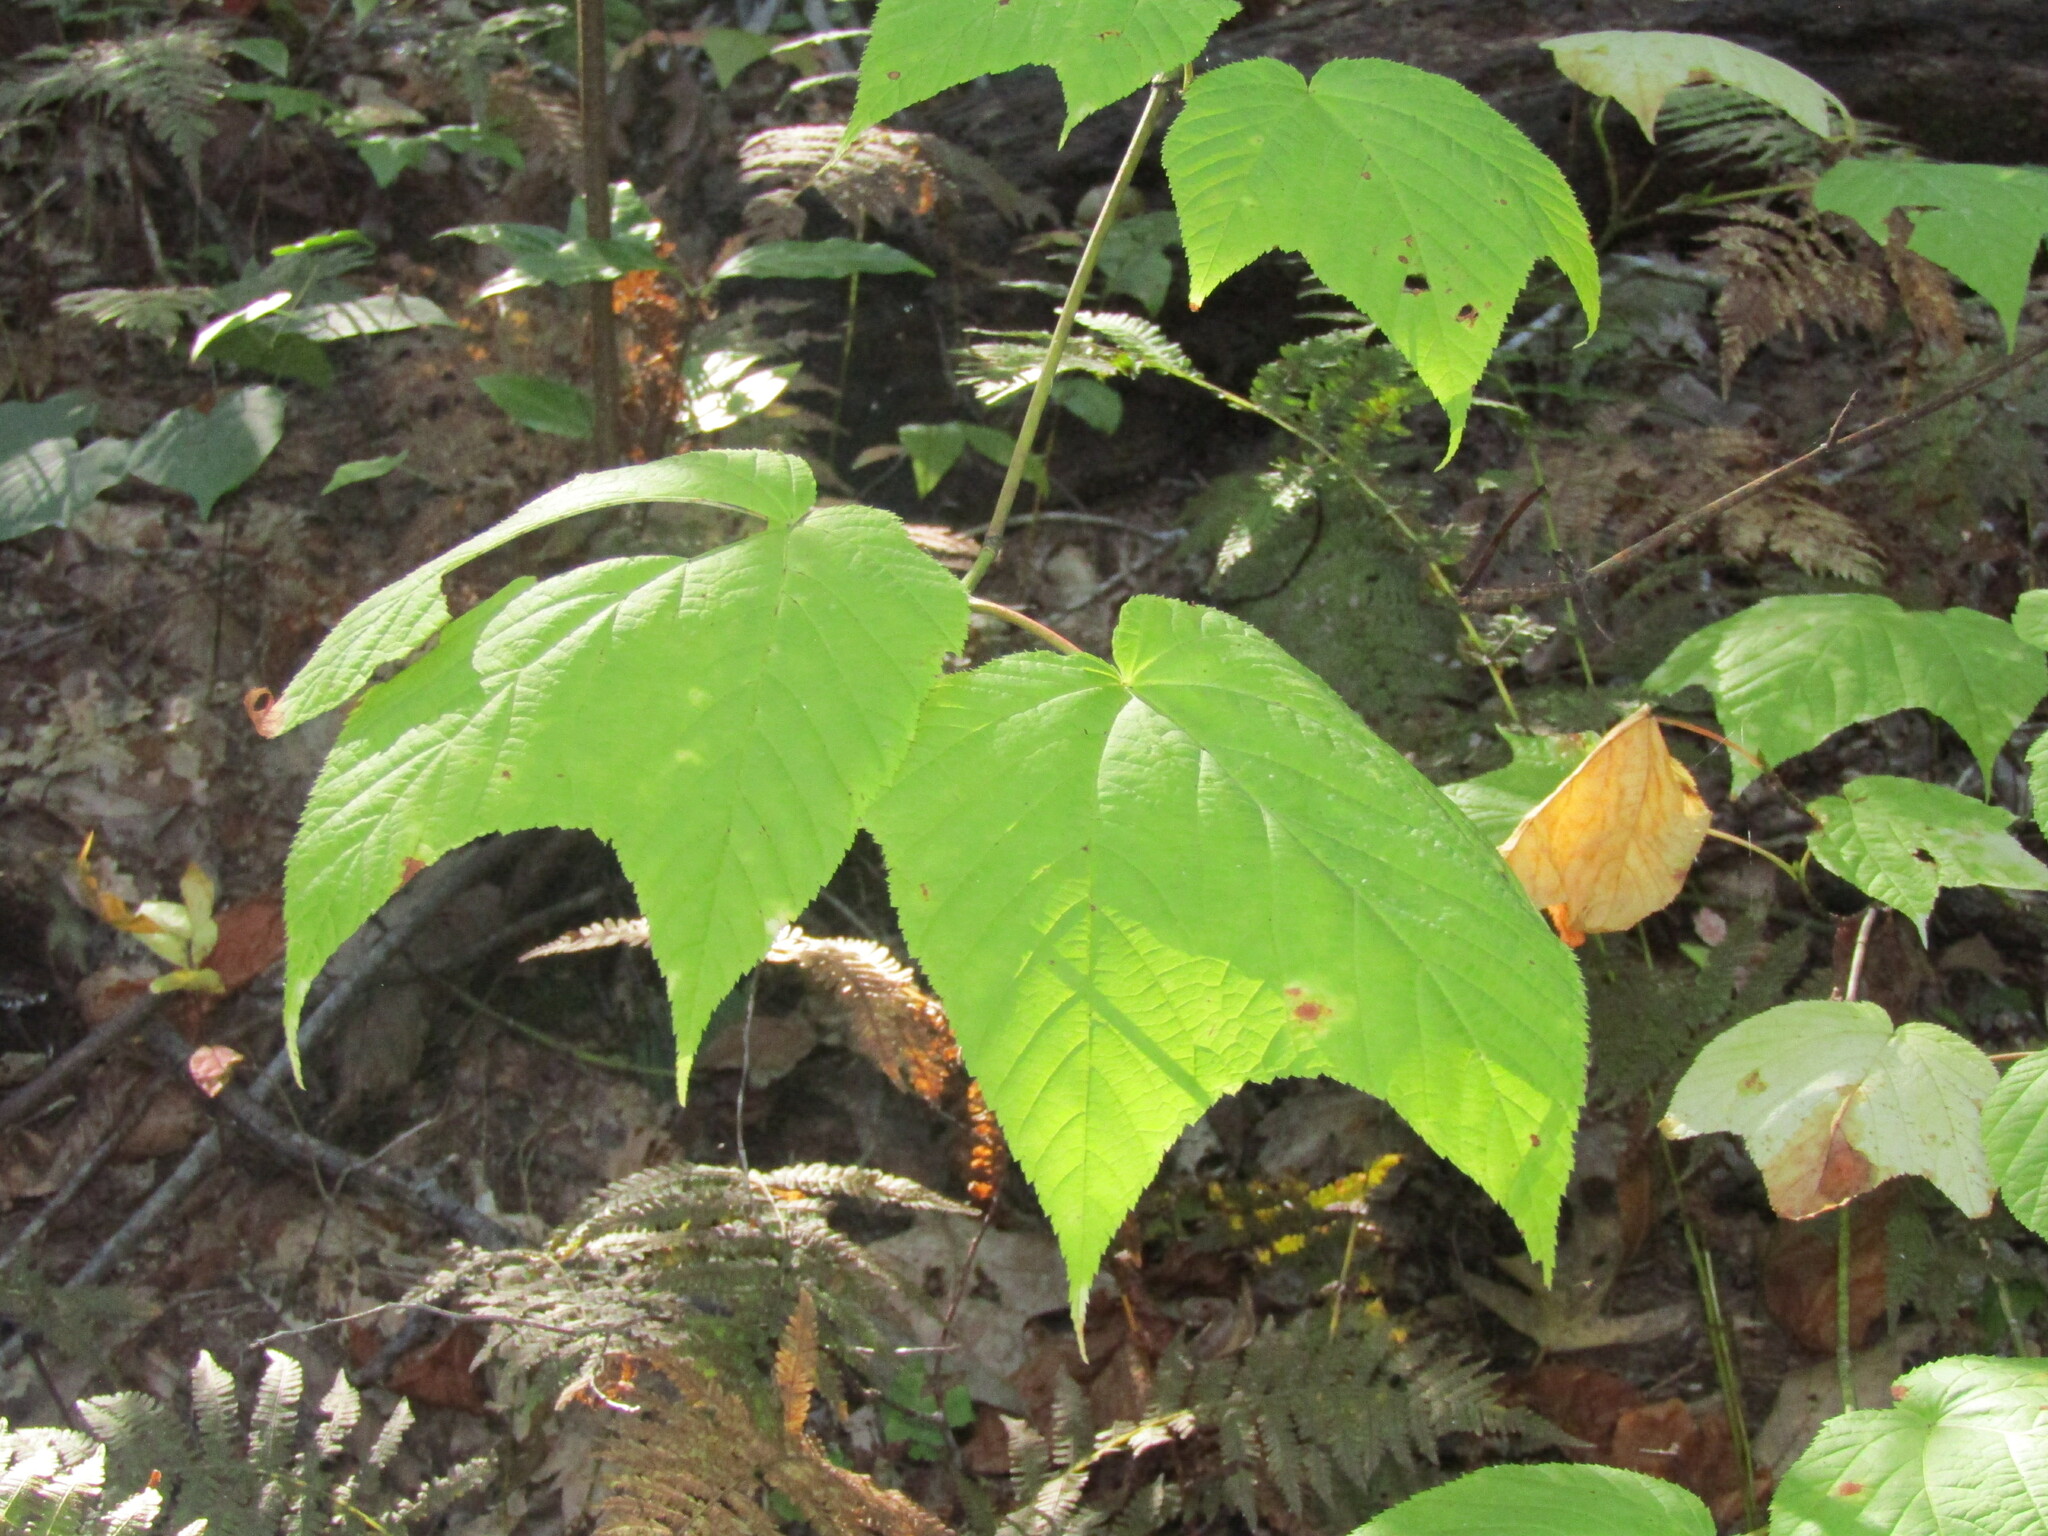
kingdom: Plantae
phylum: Tracheophyta
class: Magnoliopsida
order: Sapindales
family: Sapindaceae
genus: Acer
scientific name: Acer pensylvanicum
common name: Moosewood
